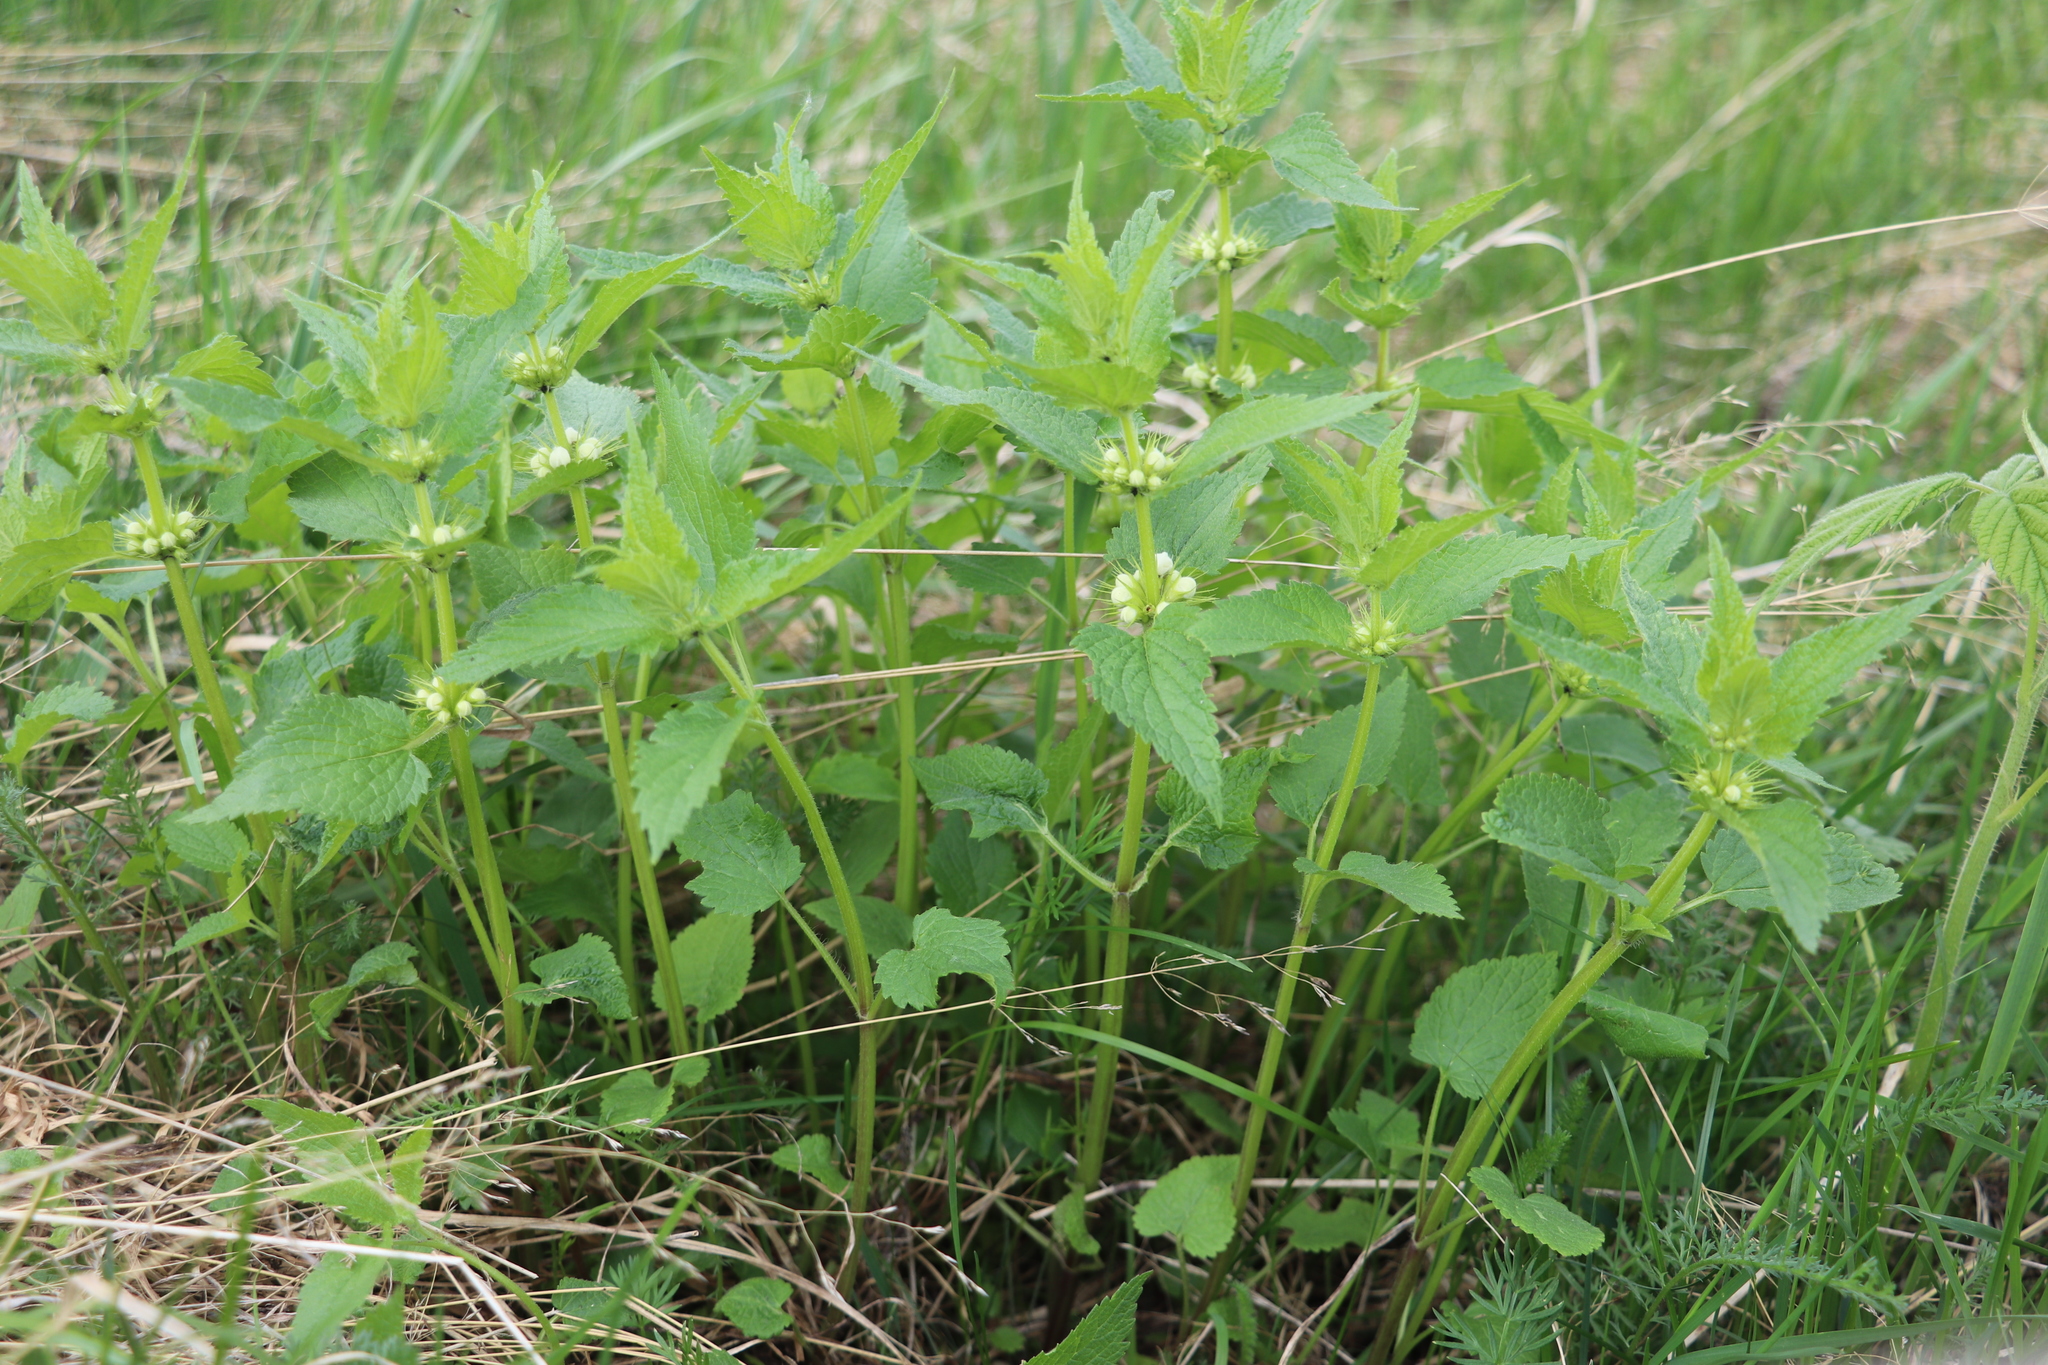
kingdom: Plantae
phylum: Tracheophyta
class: Magnoliopsida
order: Lamiales
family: Lamiaceae
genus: Lamium
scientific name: Lamium album
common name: White dead-nettle
